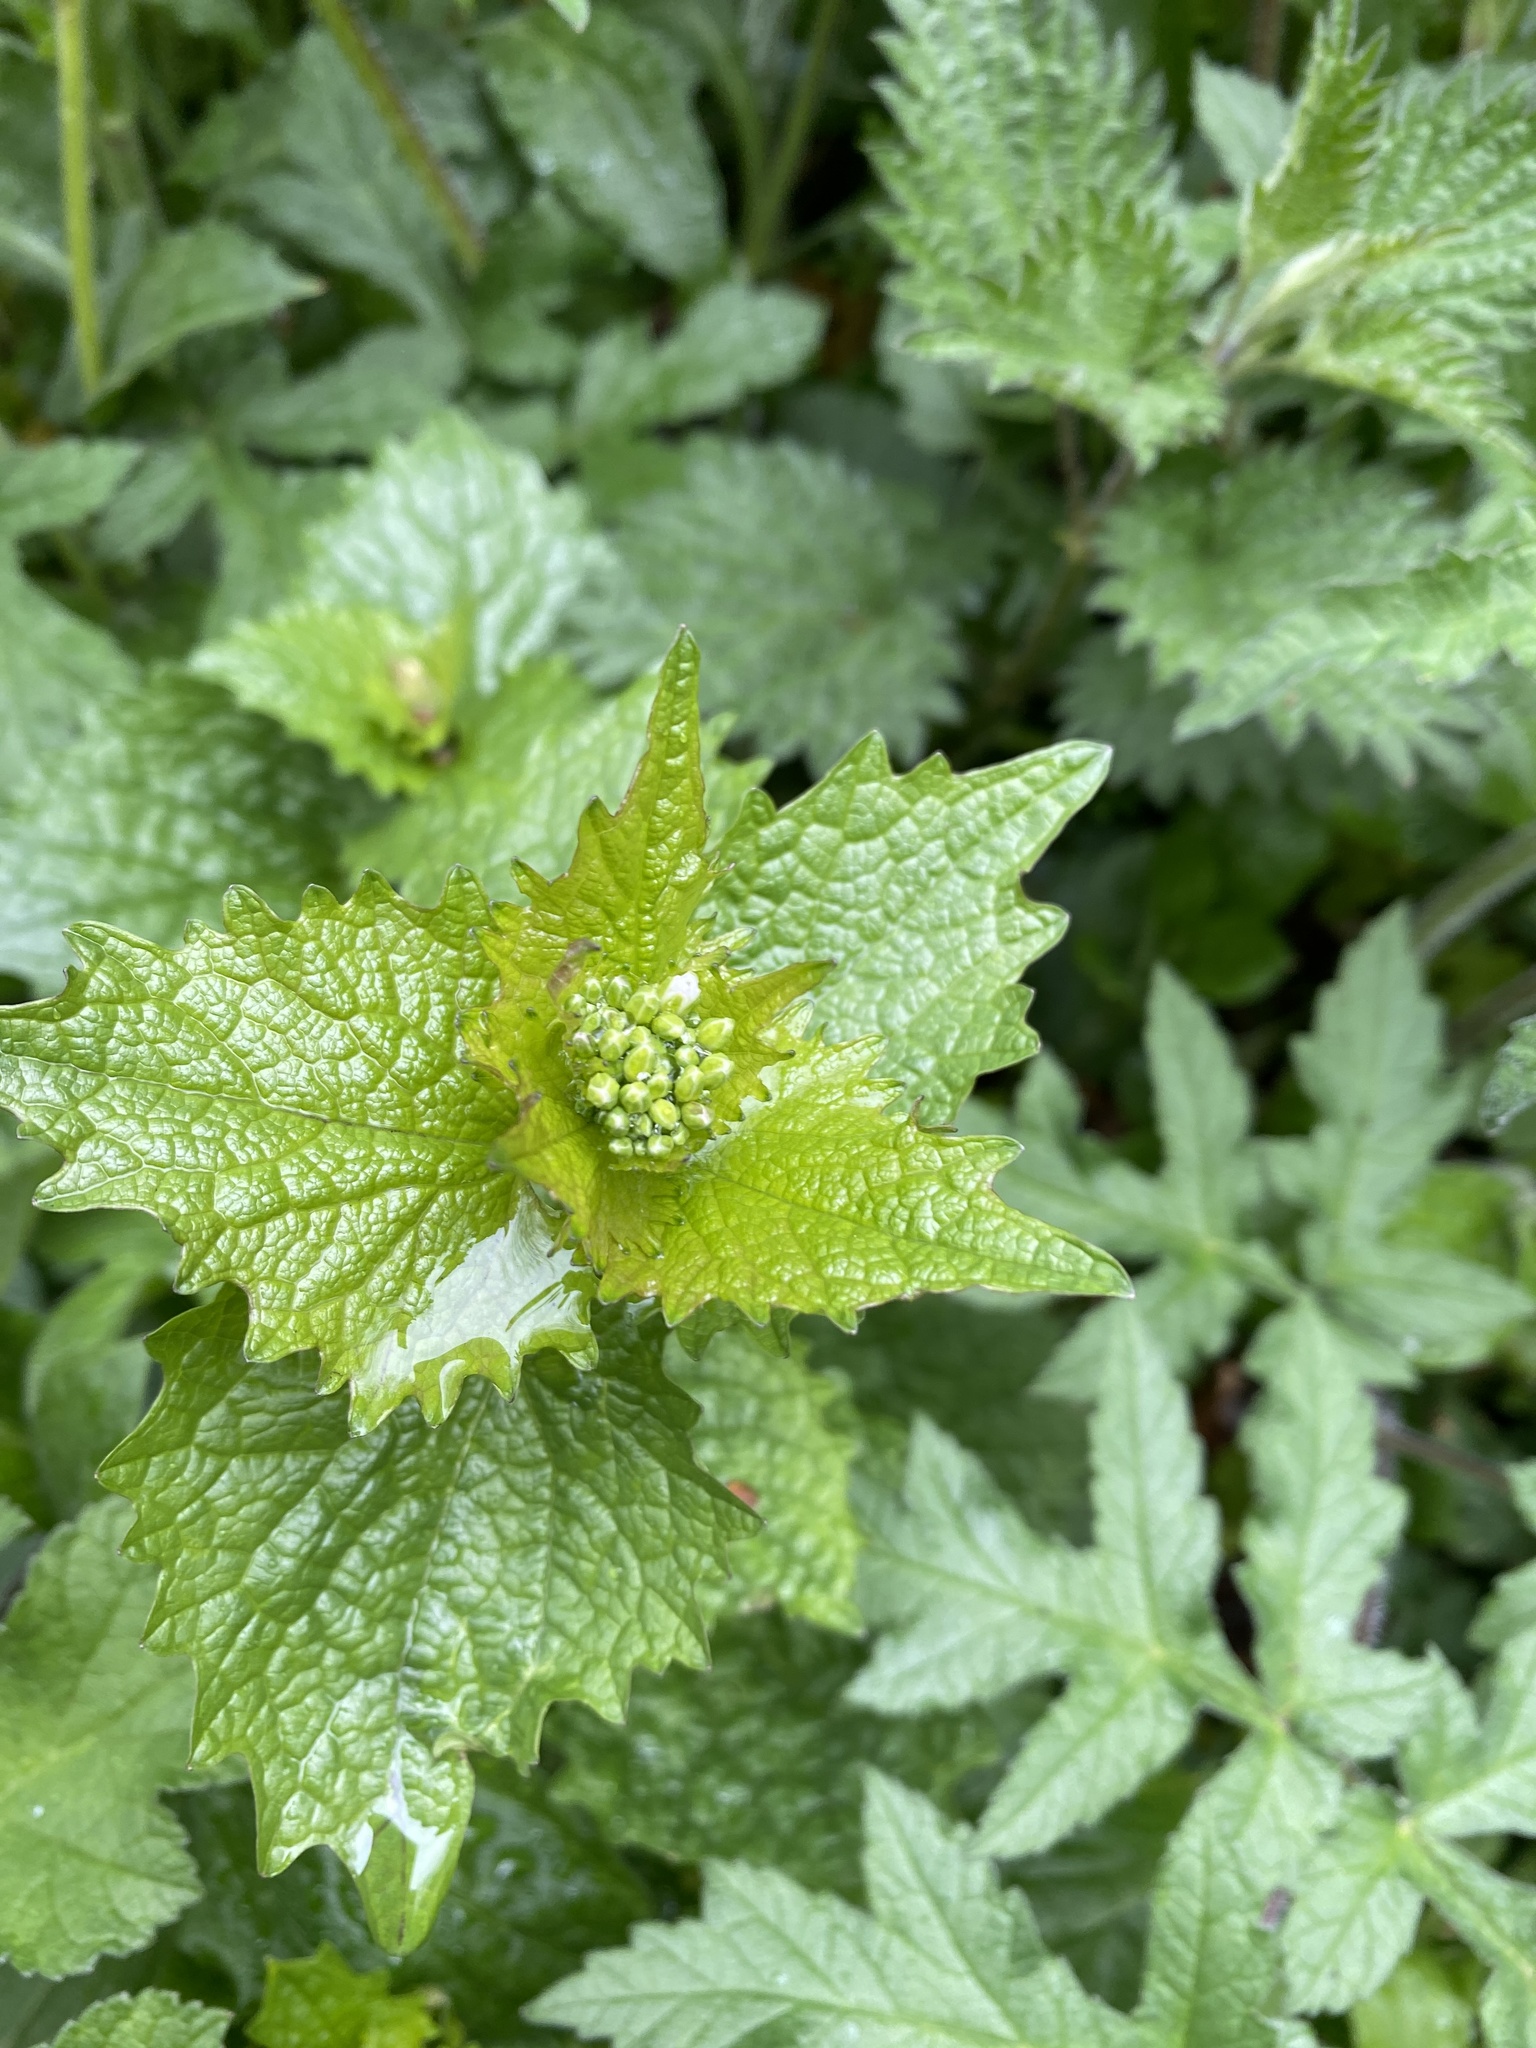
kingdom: Plantae
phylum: Tracheophyta
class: Magnoliopsida
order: Brassicales
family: Brassicaceae
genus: Alliaria
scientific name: Alliaria petiolata
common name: Garlic mustard
